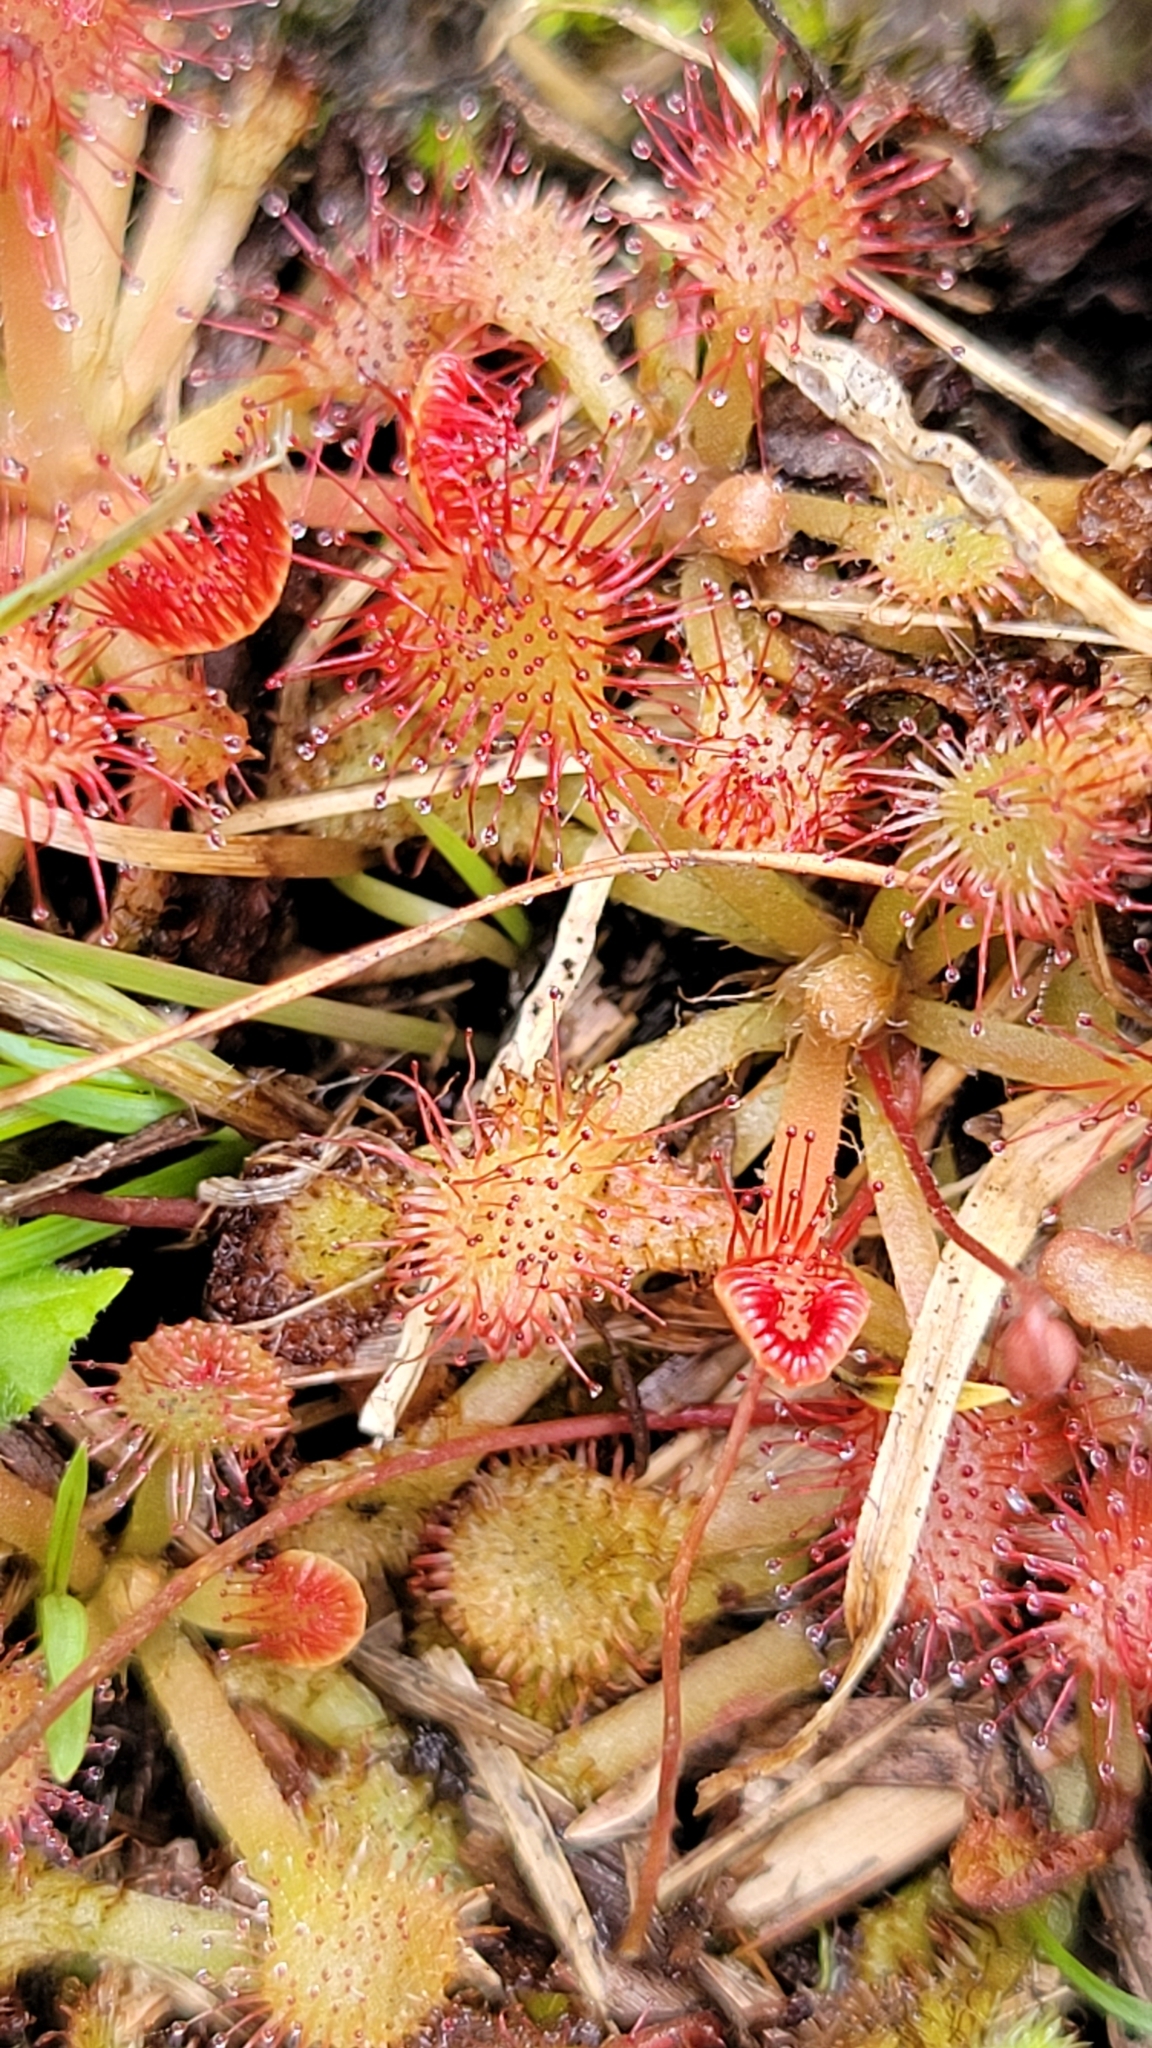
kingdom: Plantae
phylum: Tracheophyta
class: Magnoliopsida
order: Caryophyllales
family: Droseraceae
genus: Drosera
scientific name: Drosera capillaris
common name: Pink sundew
